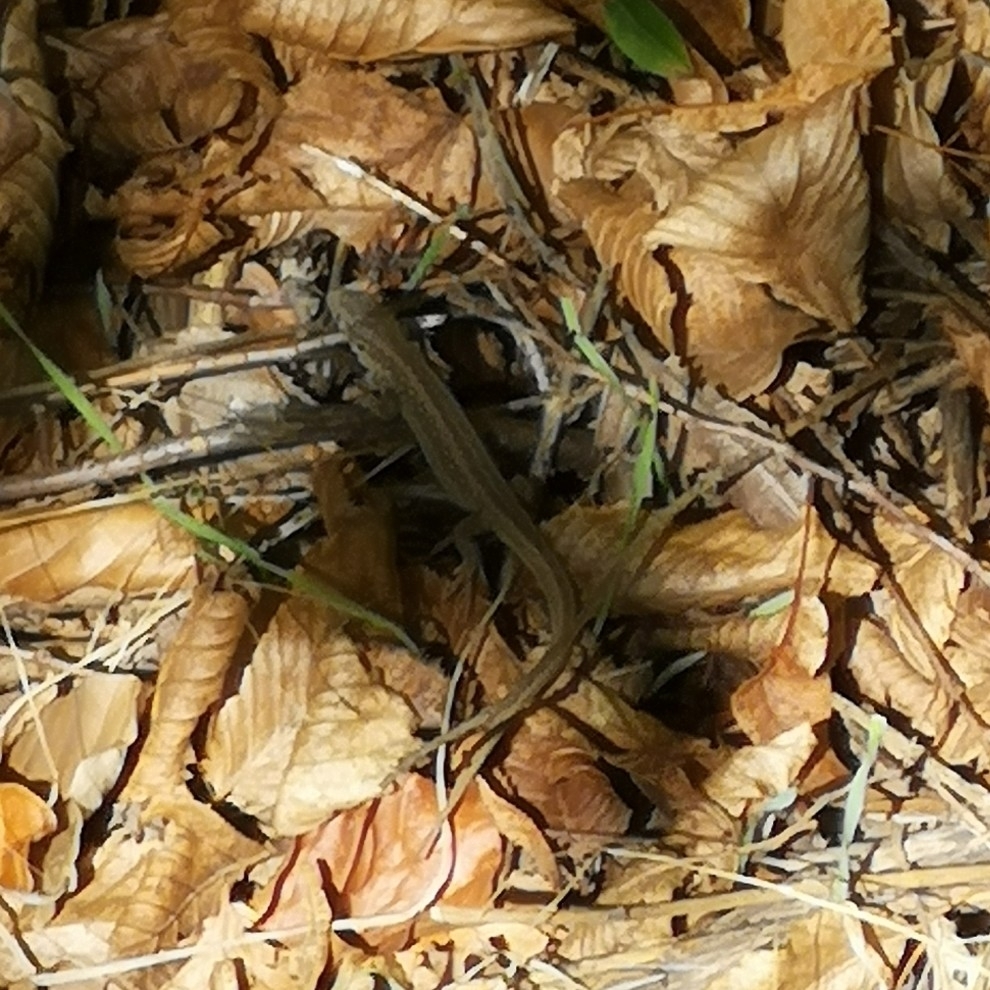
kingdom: Animalia
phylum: Chordata
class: Squamata
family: Lacertidae
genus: Lacerta
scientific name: Lacerta agilis
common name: Sand lizard
